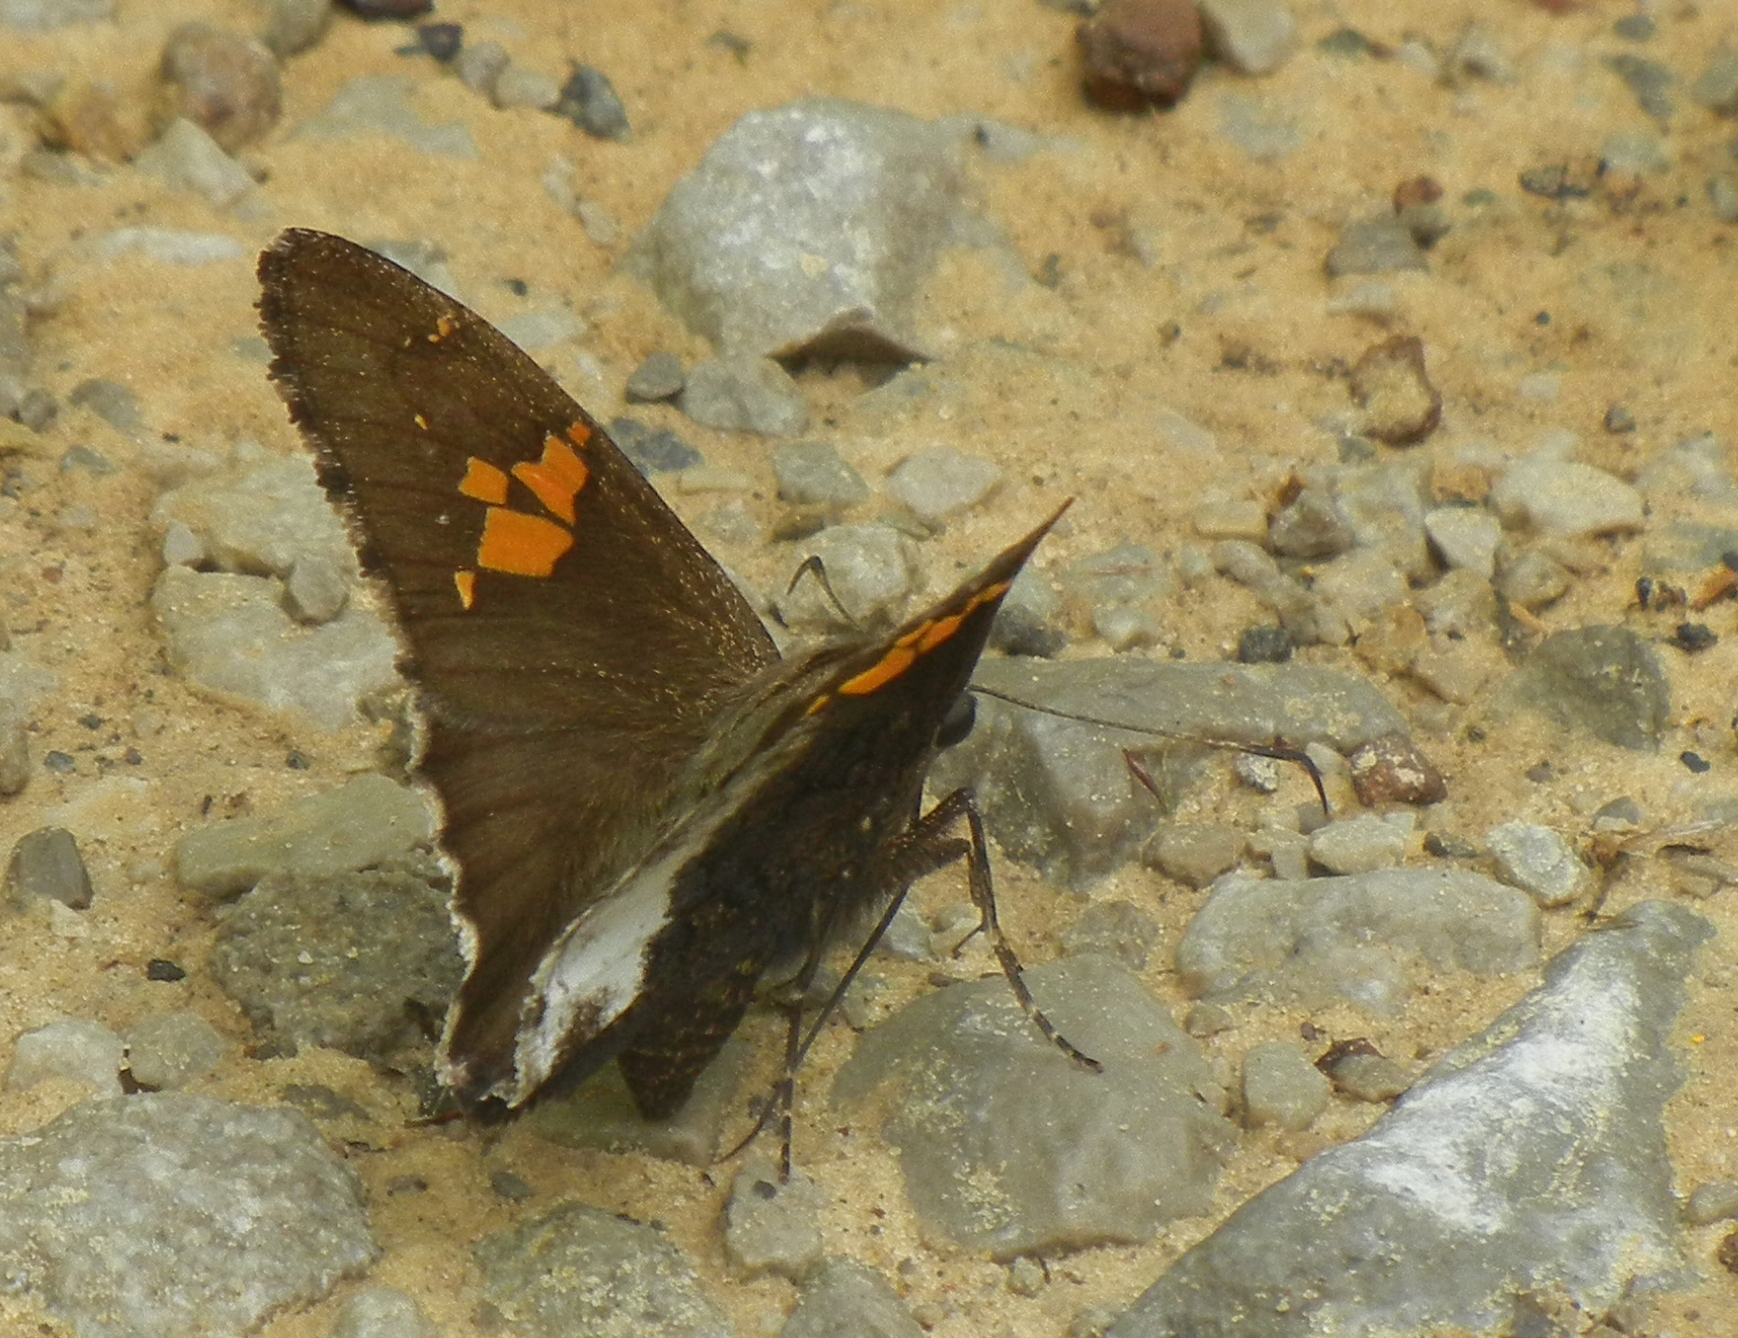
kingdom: Animalia
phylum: Arthropoda
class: Insecta
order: Lepidoptera
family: Hesperiidae
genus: Thorybes
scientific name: Thorybes lyciades
